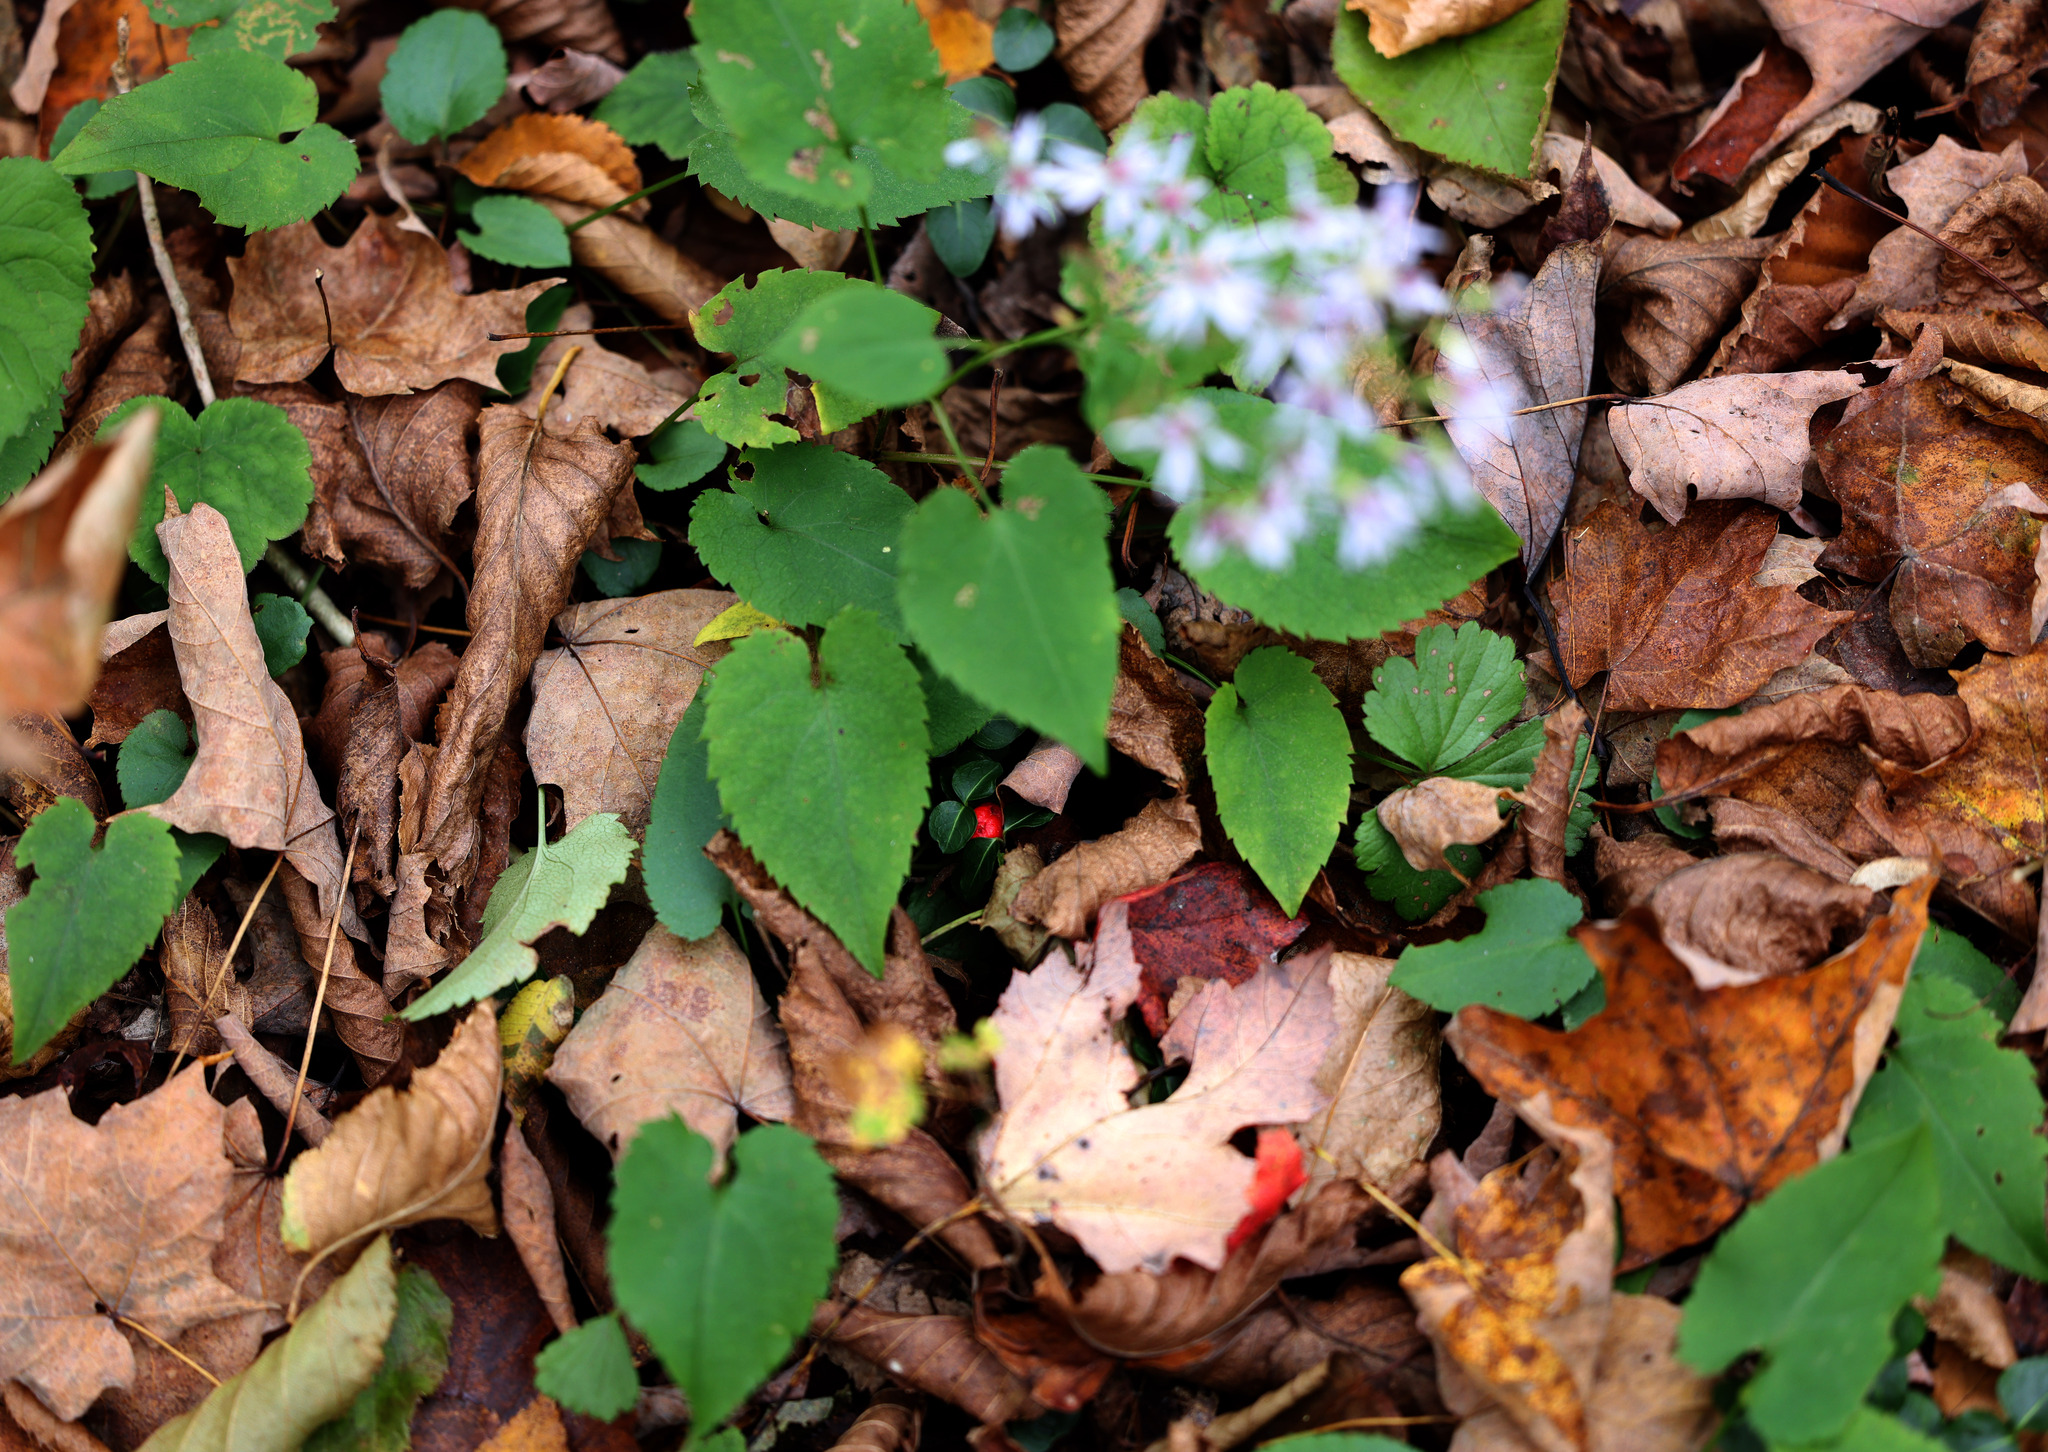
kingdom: Plantae
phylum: Tracheophyta
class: Magnoliopsida
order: Asterales
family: Asteraceae
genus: Symphyotrichum
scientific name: Symphyotrichum cordifolium
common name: Beeweed
